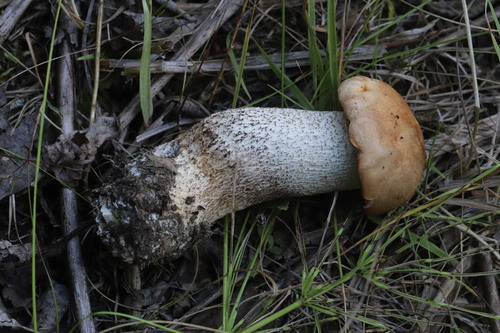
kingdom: Fungi
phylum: Basidiomycota
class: Agaricomycetes
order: Boletales
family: Boletaceae
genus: Leccinum
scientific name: Leccinum versipelle
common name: Orange birch bolete
